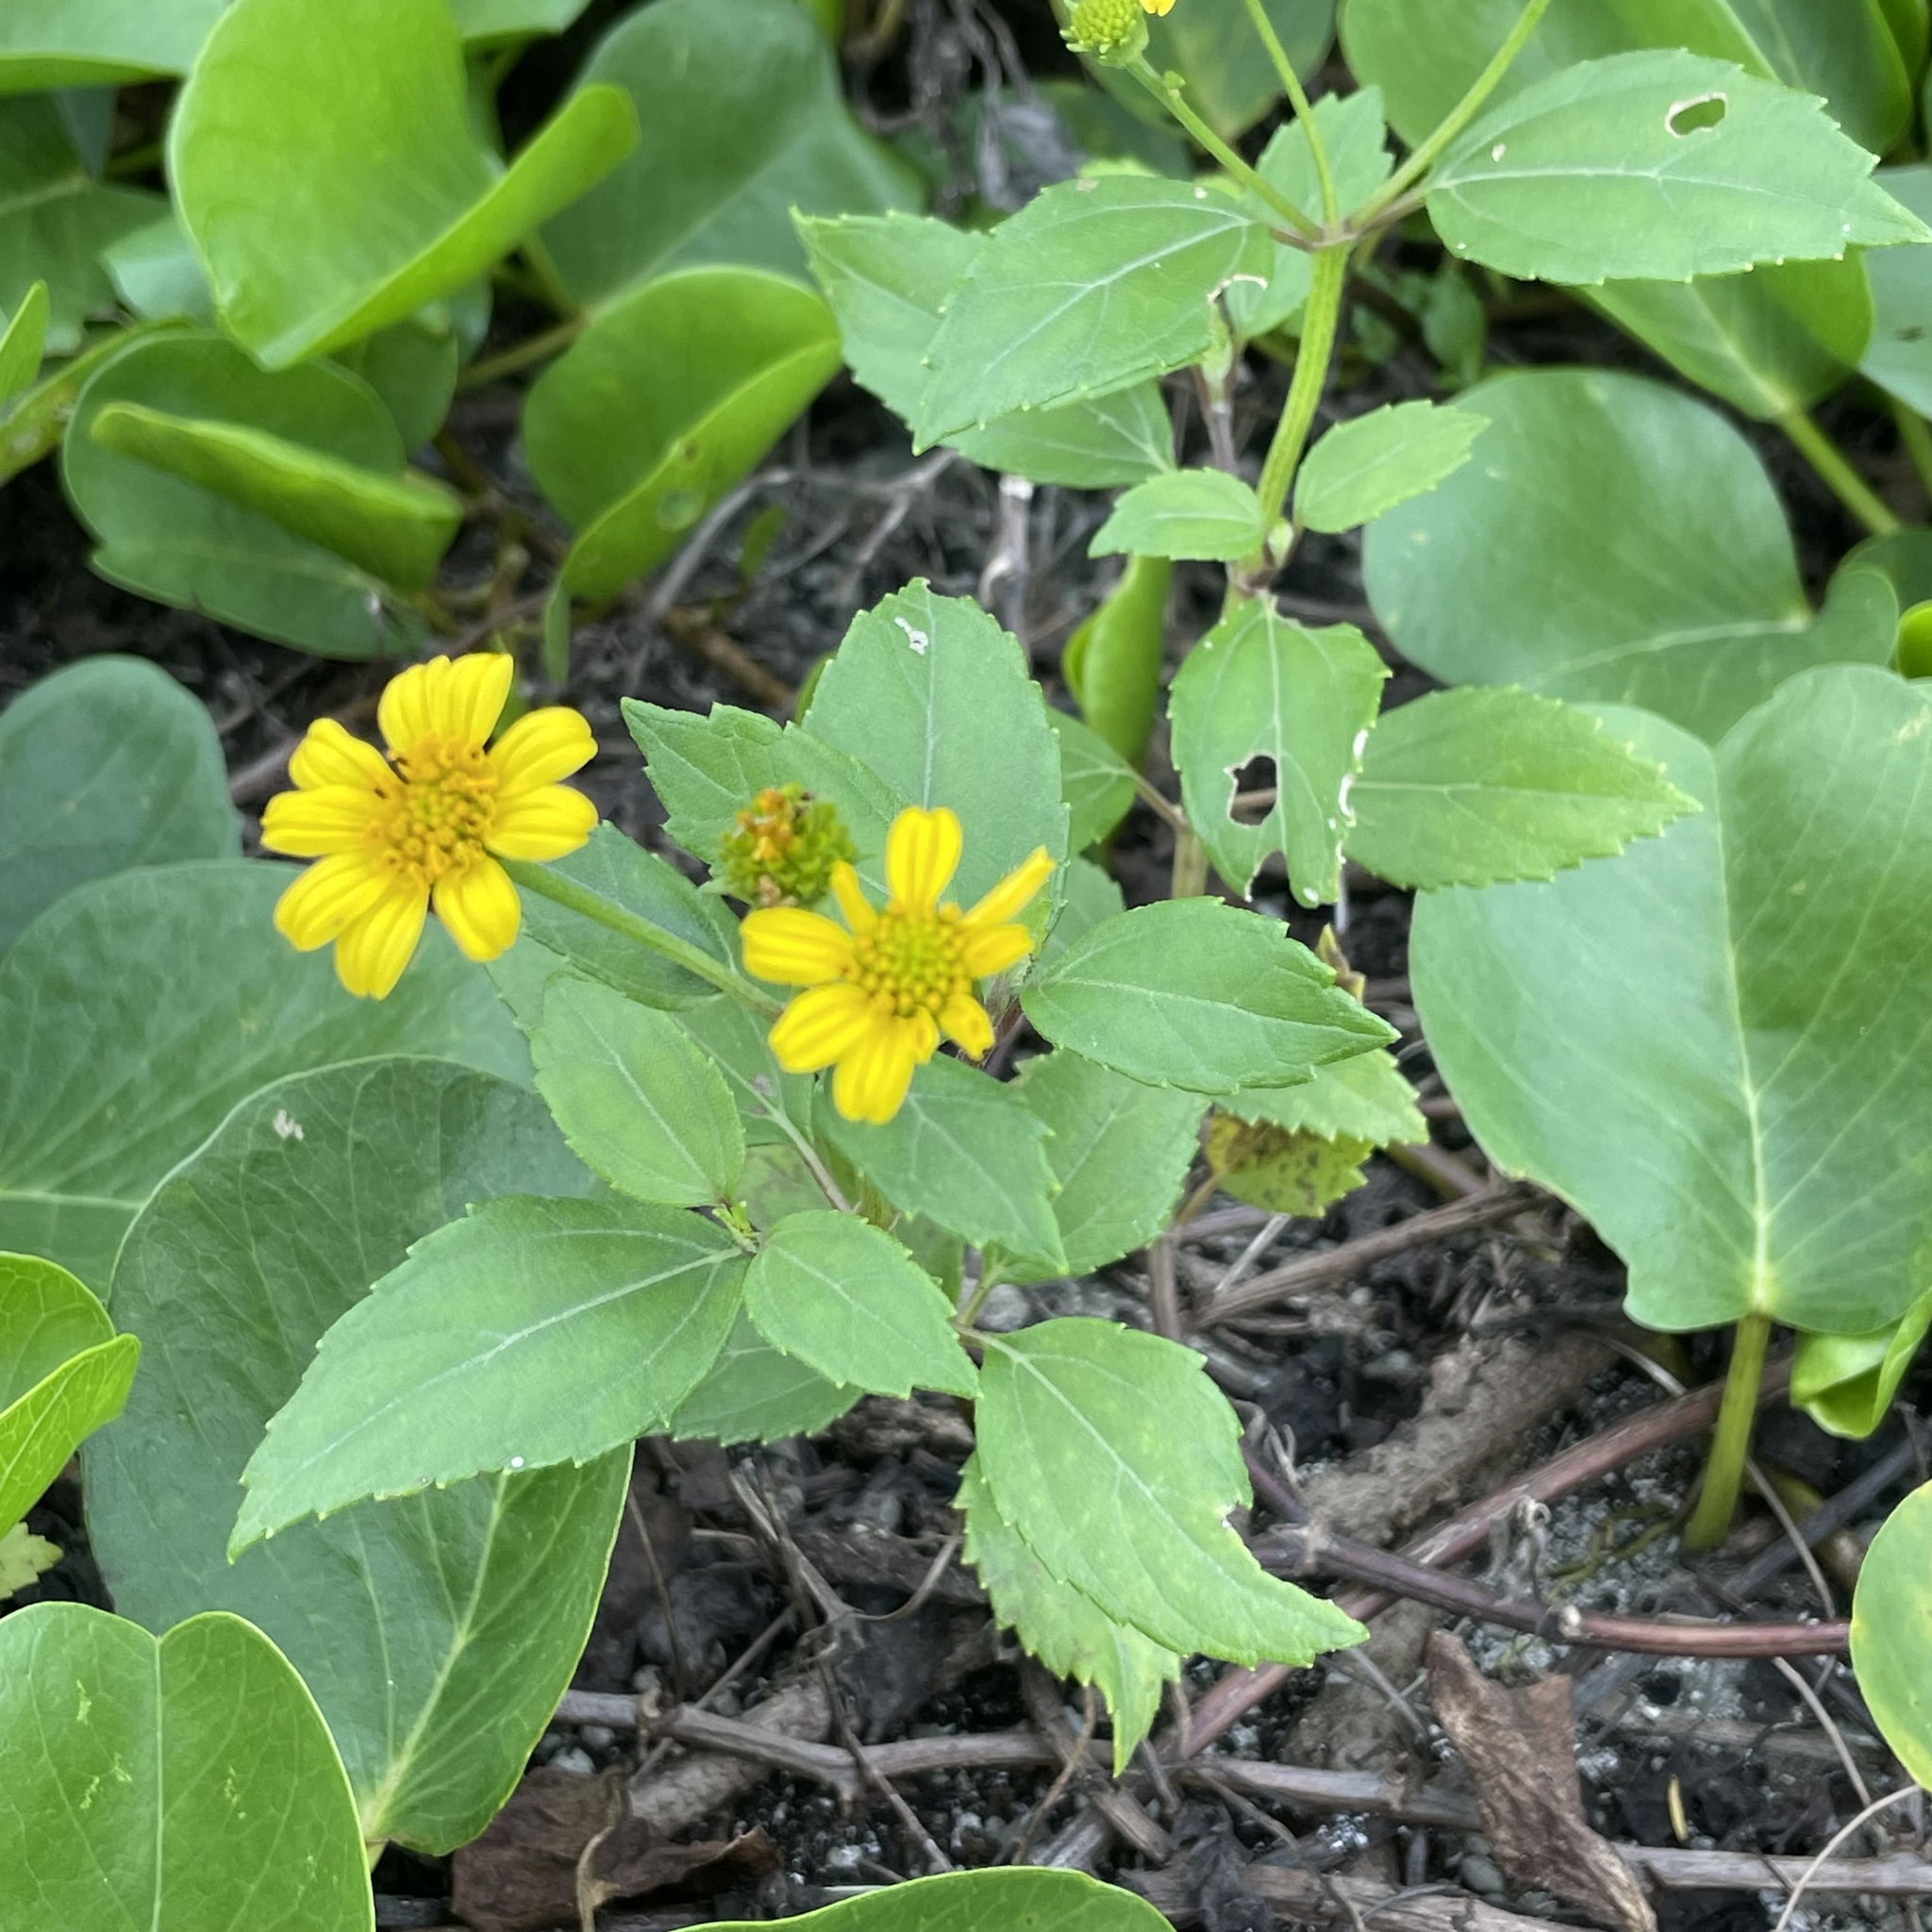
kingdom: Plantae
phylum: Tracheophyta
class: Magnoliopsida
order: Asterales
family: Asteraceae
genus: Wollastonia
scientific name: Wollastonia biflora
